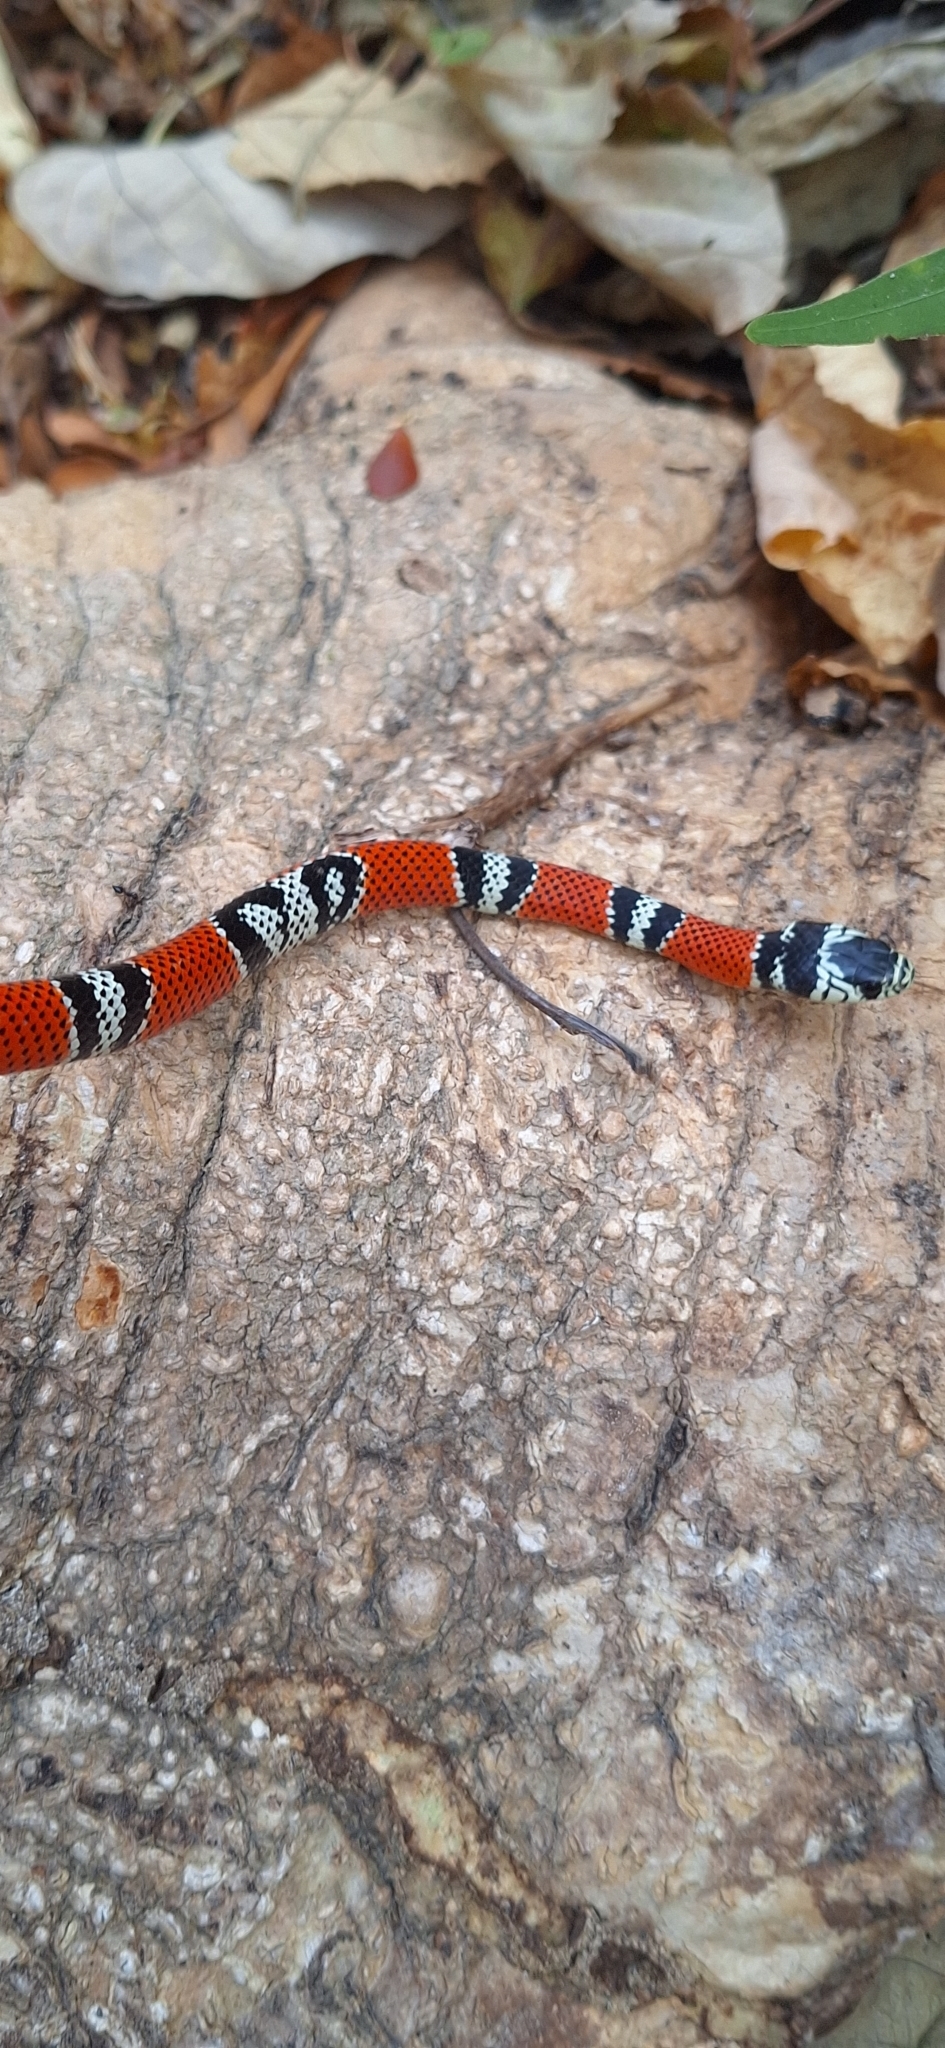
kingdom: Animalia
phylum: Chordata
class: Squamata
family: Colubridae
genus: Erythrolamprus
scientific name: Erythrolamprus bizona
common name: Double-banded coral snake mimic
